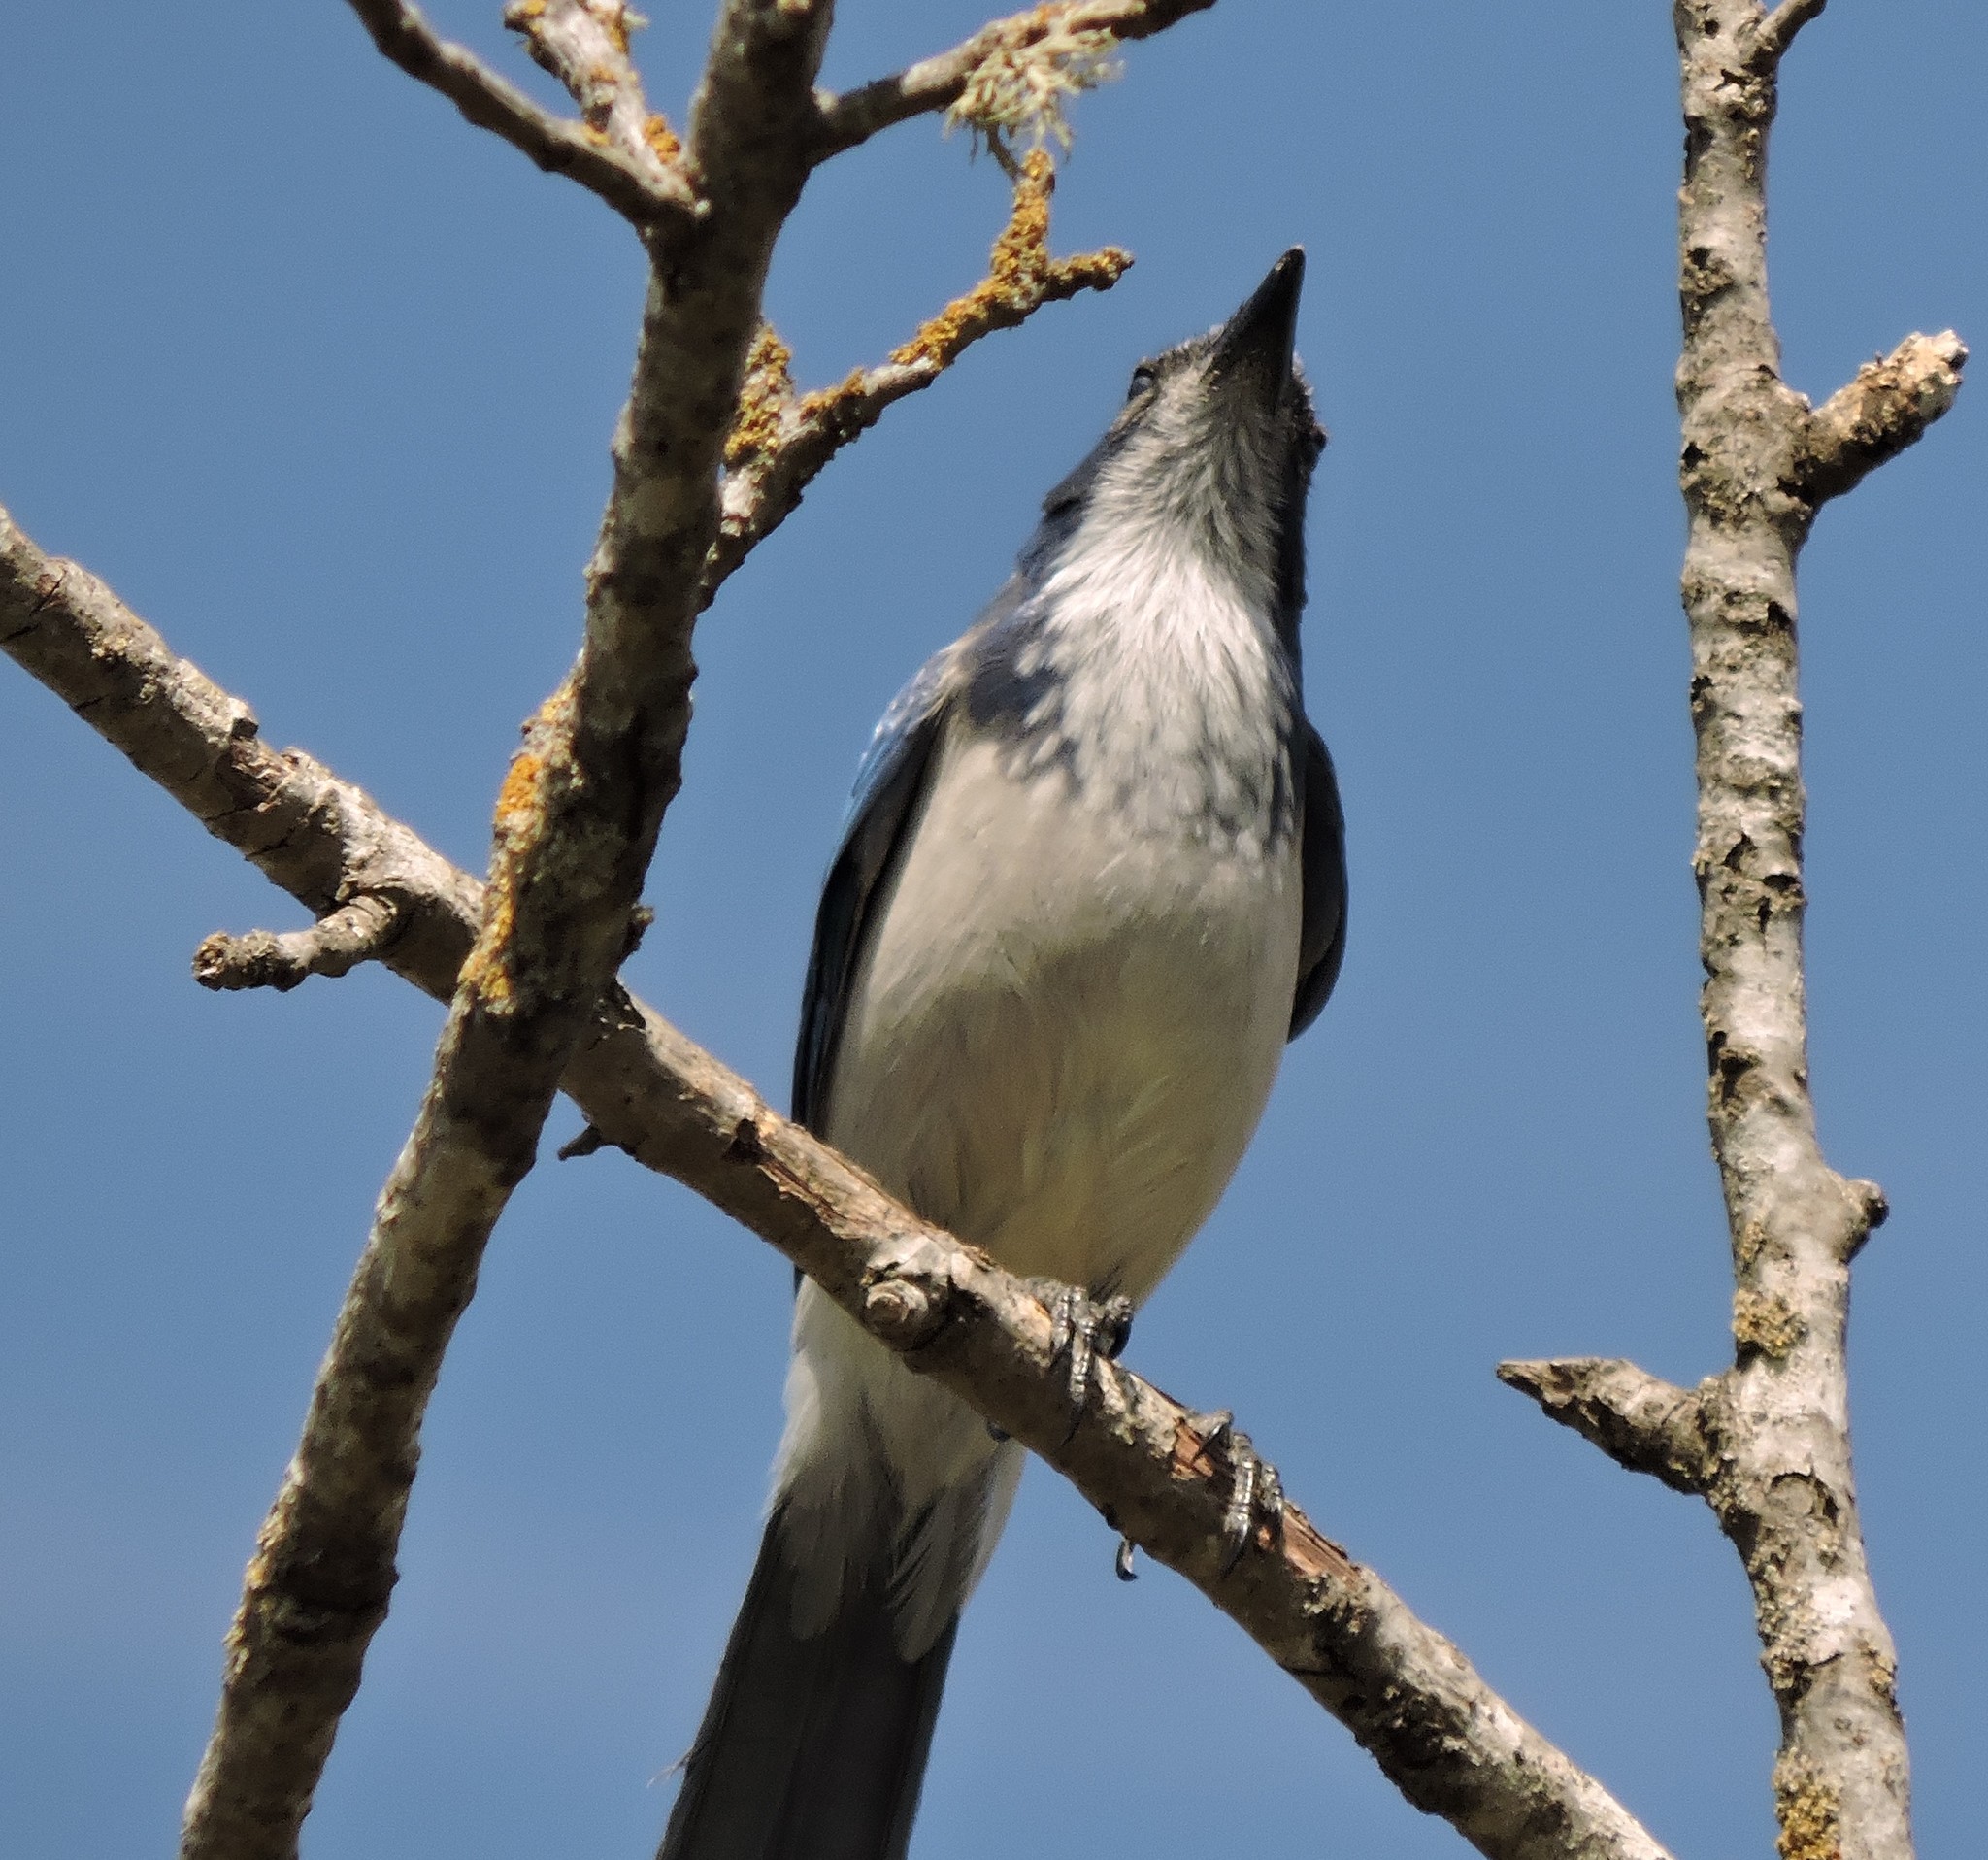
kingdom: Animalia
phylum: Chordata
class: Aves
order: Passeriformes
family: Corvidae
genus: Aphelocoma
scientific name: Aphelocoma californica
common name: California scrub-jay
